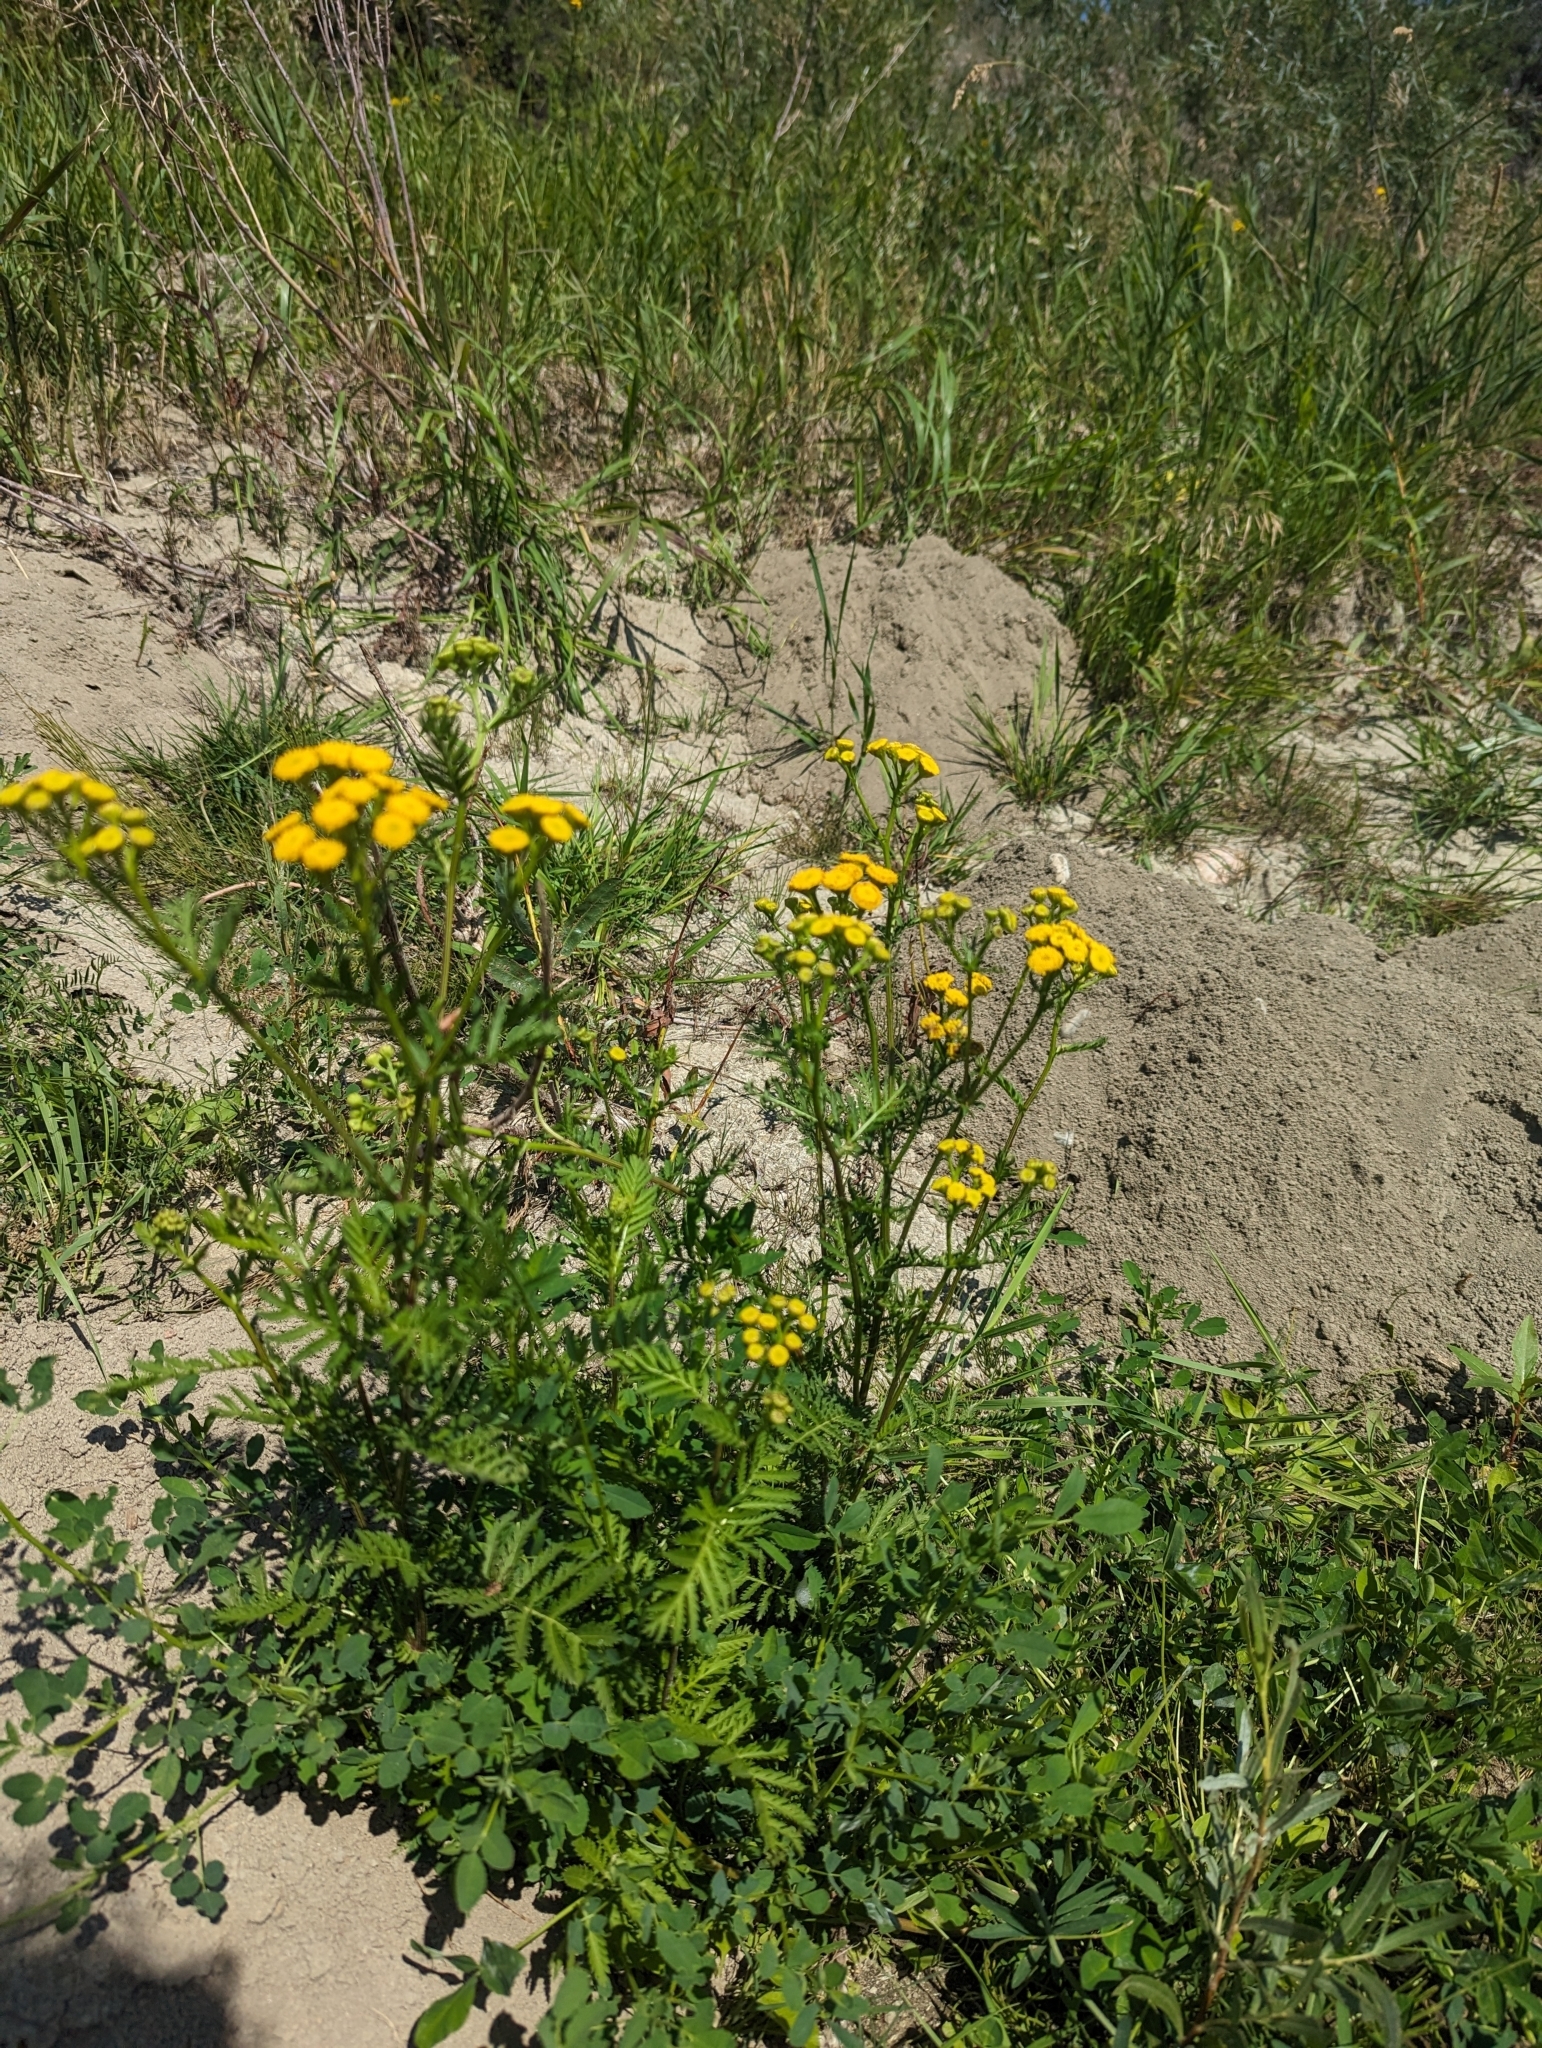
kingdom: Plantae
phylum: Tracheophyta
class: Magnoliopsida
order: Asterales
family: Asteraceae
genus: Tanacetum
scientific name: Tanacetum vulgare
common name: Common tansy
